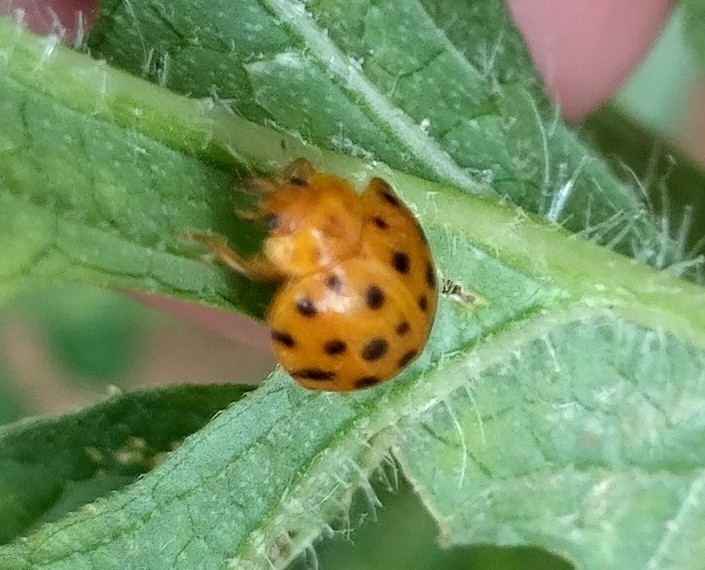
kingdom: Animalia
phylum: Arthropoda
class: Insecta
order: Coleoptera
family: Coccinellidae
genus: Henosepilachna
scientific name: Henosepilachna sumbana
